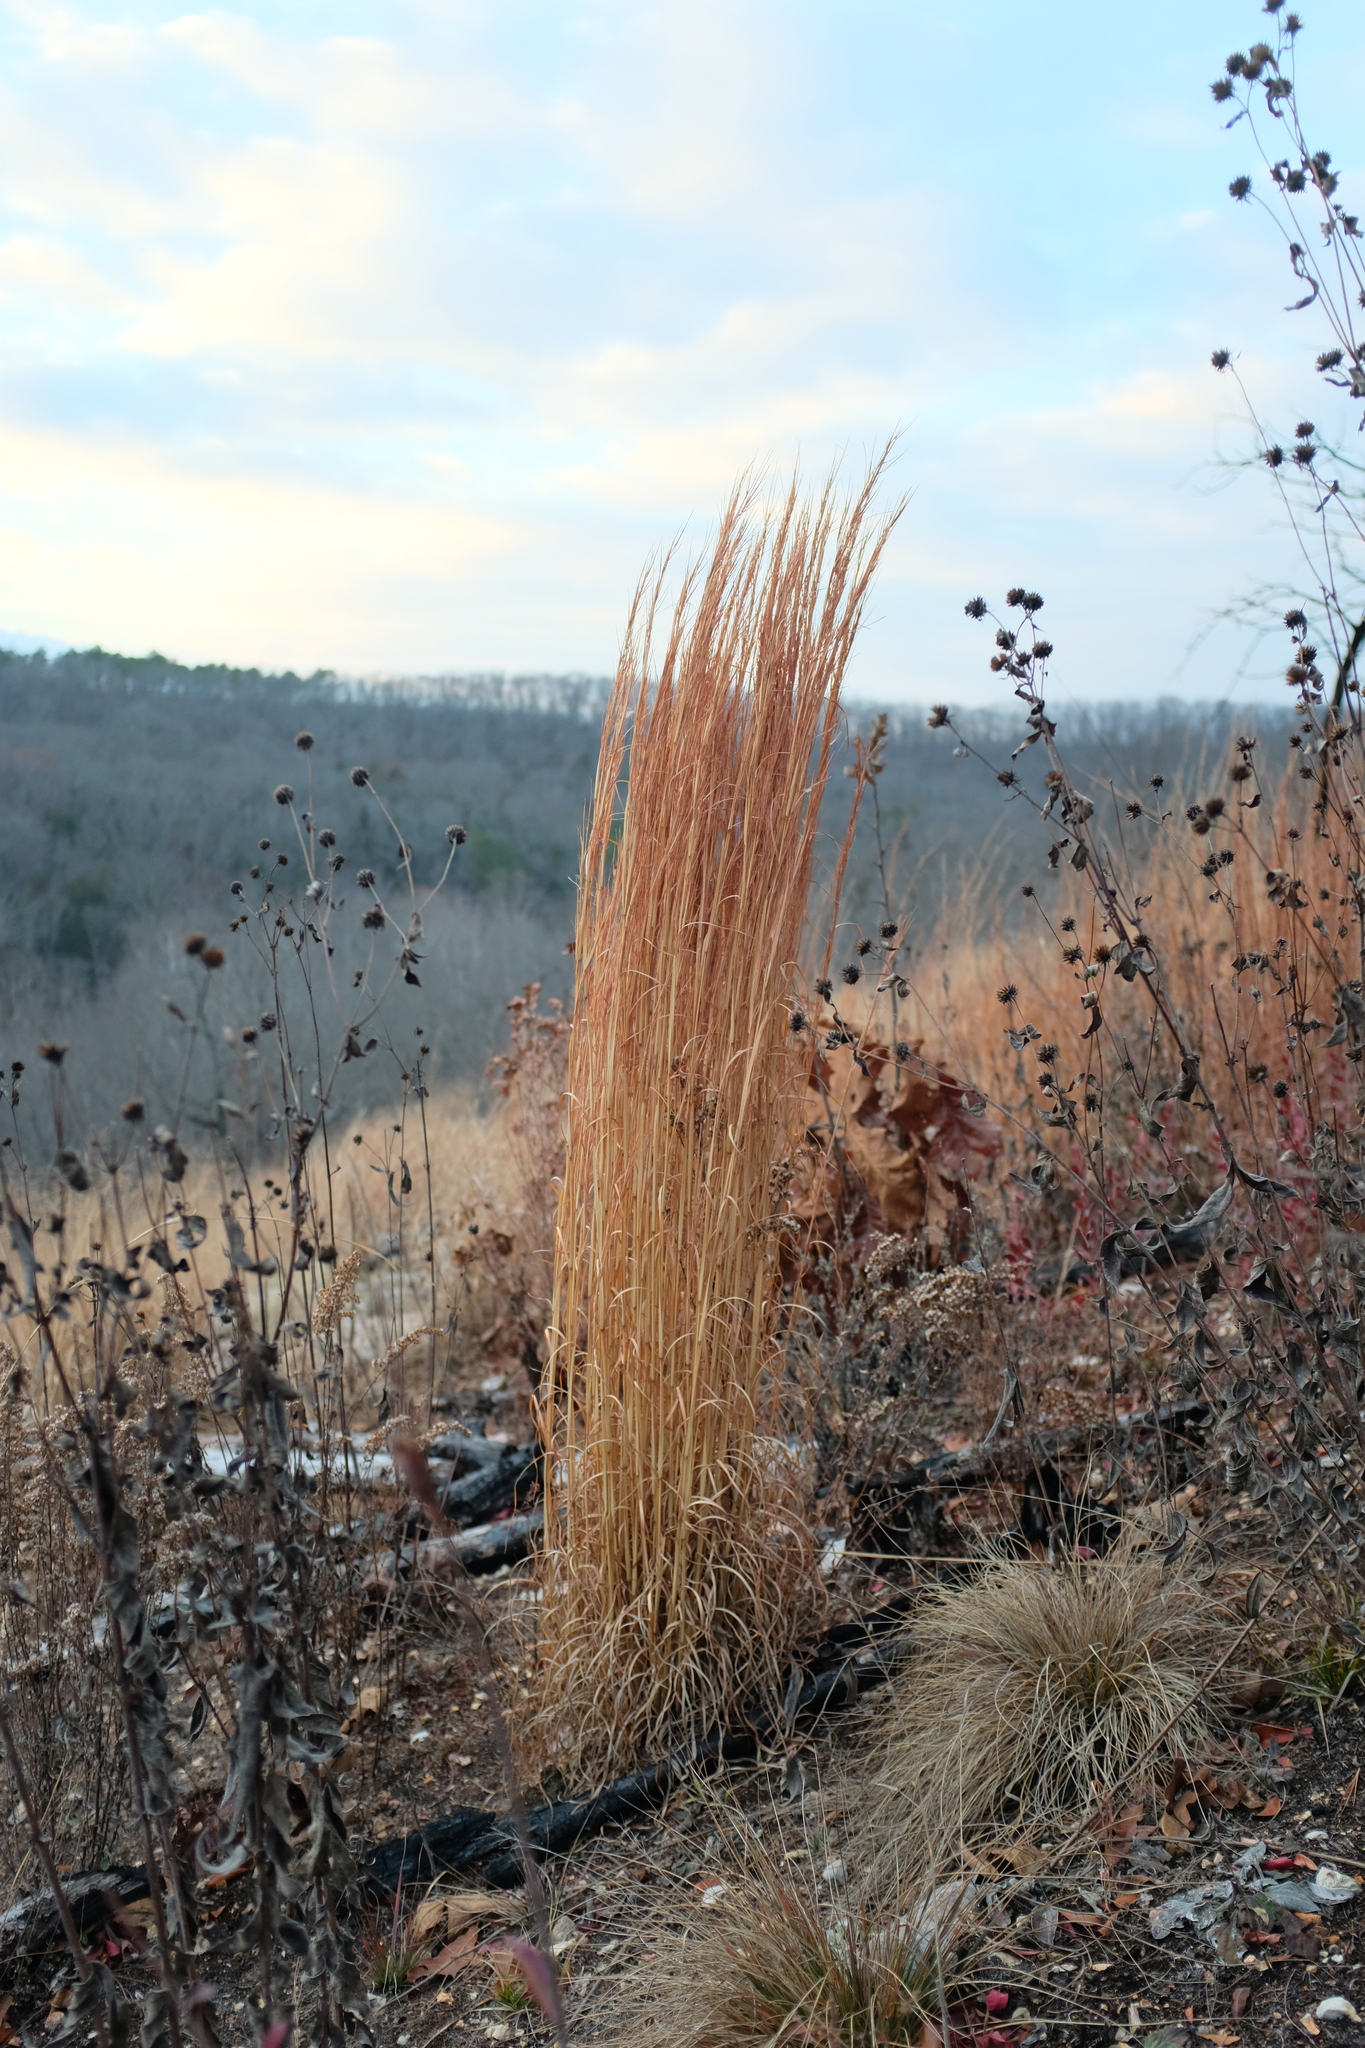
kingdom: Plantae
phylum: Tracheophyta
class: Liliopsida
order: Poales
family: Poaceae
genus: Andropogon
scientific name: Andropogon virginicus
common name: Broomsedge bluestem
